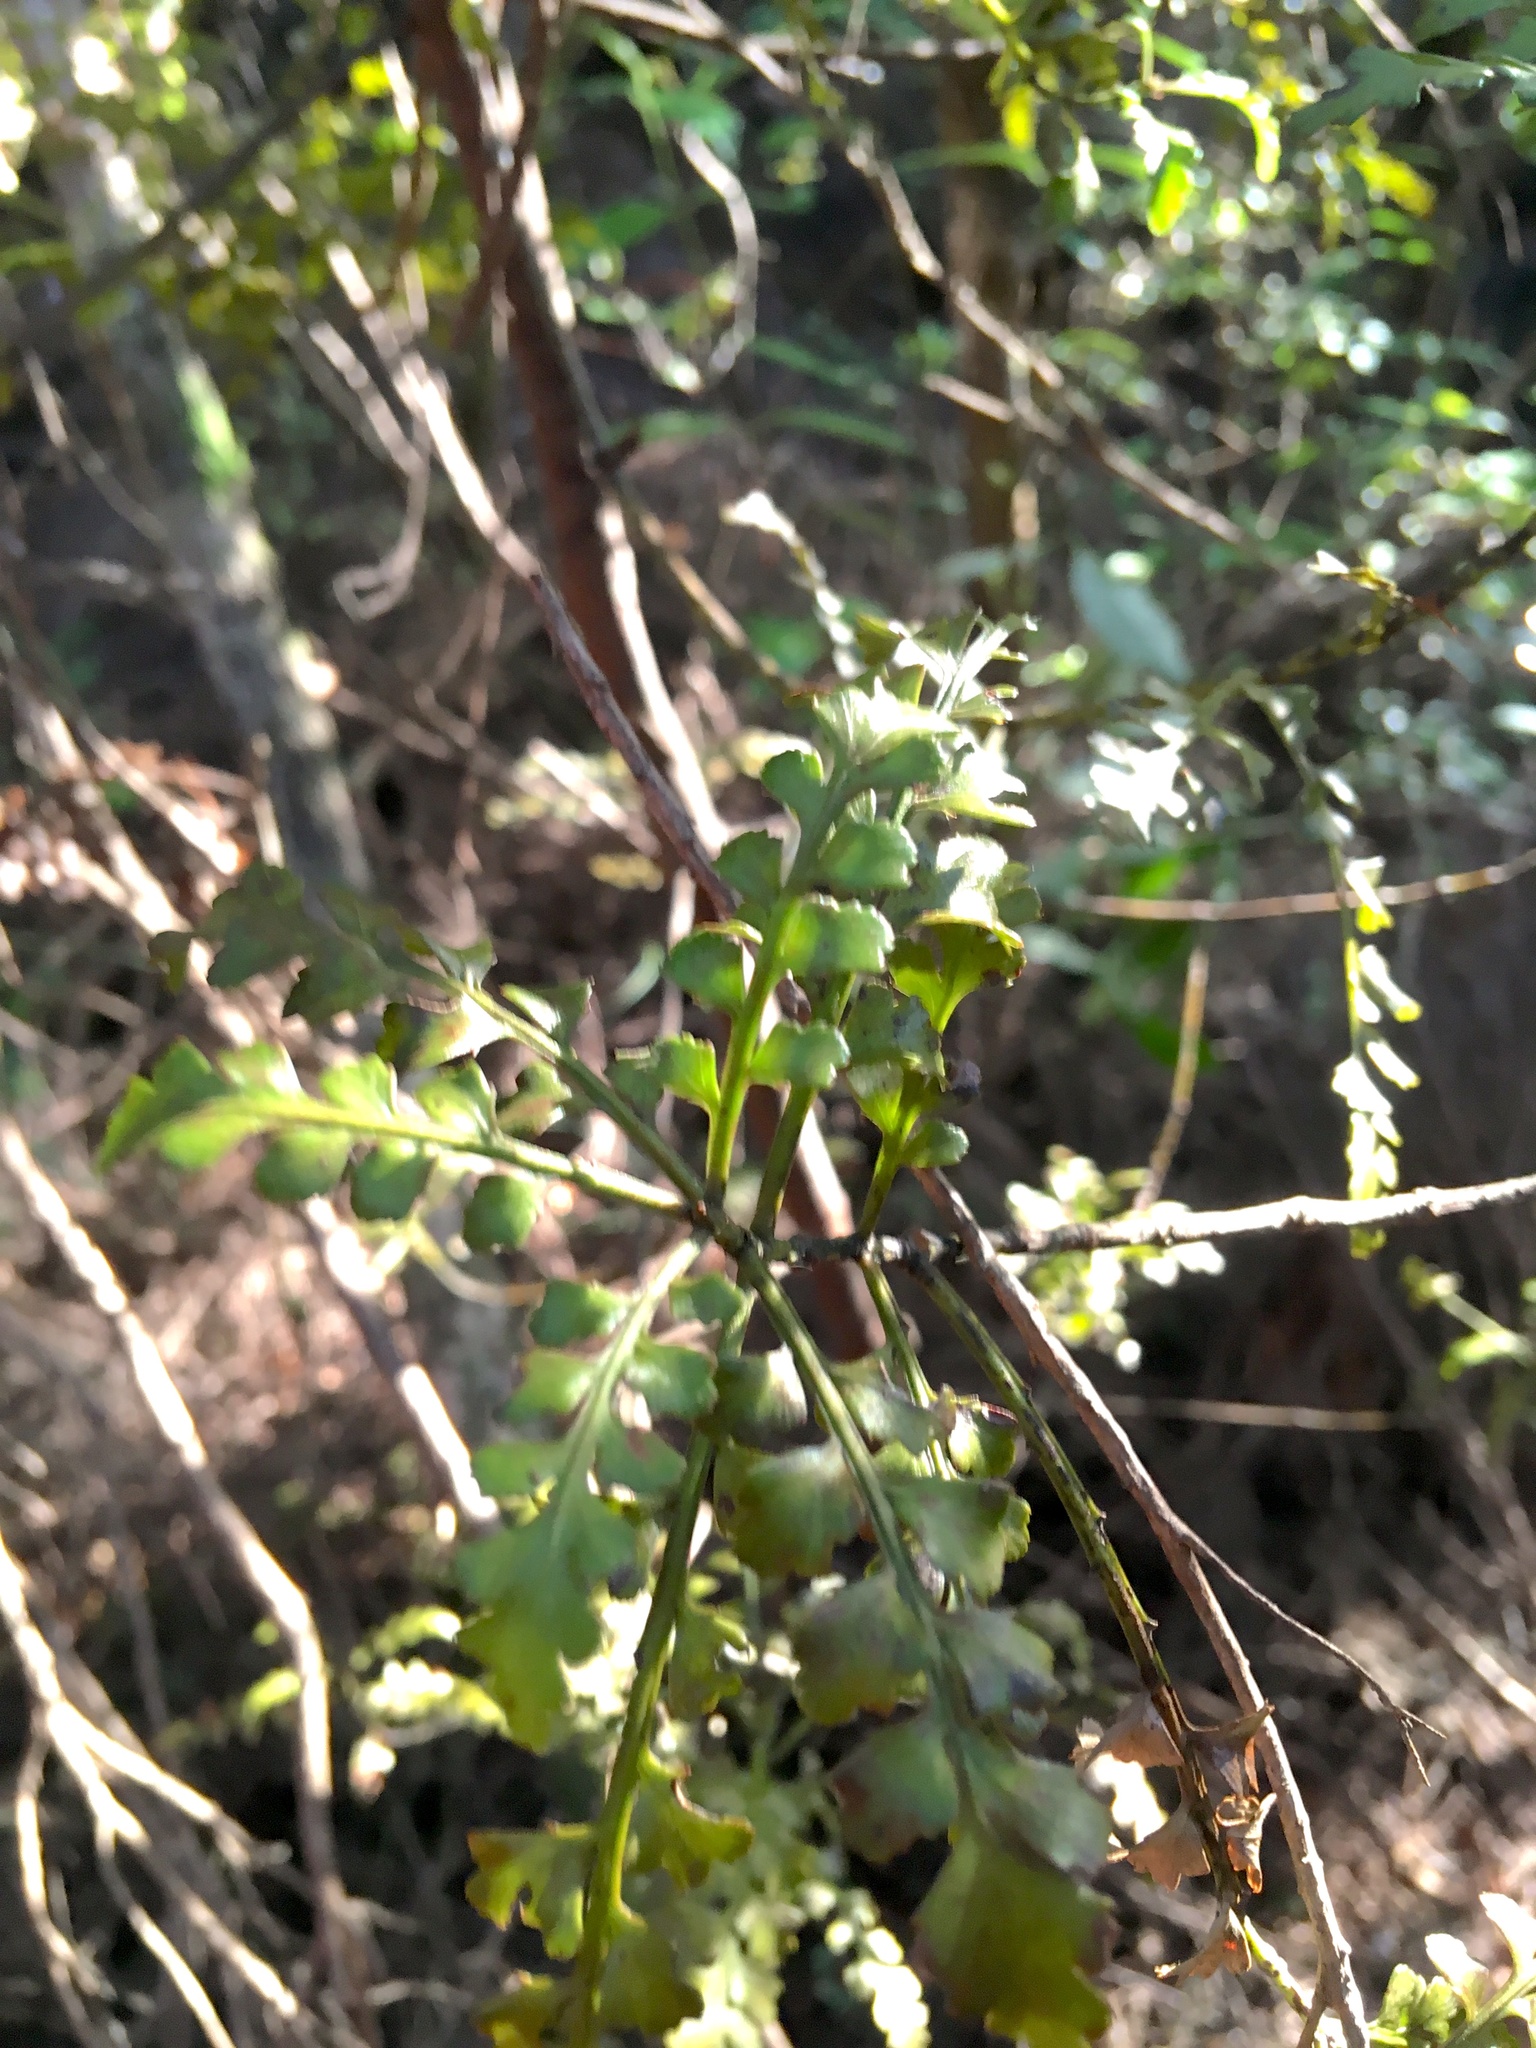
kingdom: Plantae
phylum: Tracheophyta
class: Pinopsida
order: Pinales
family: Phyllocladaceae
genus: Phyllocladus
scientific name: Phyllocladus trichomanoides
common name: Celery pine
